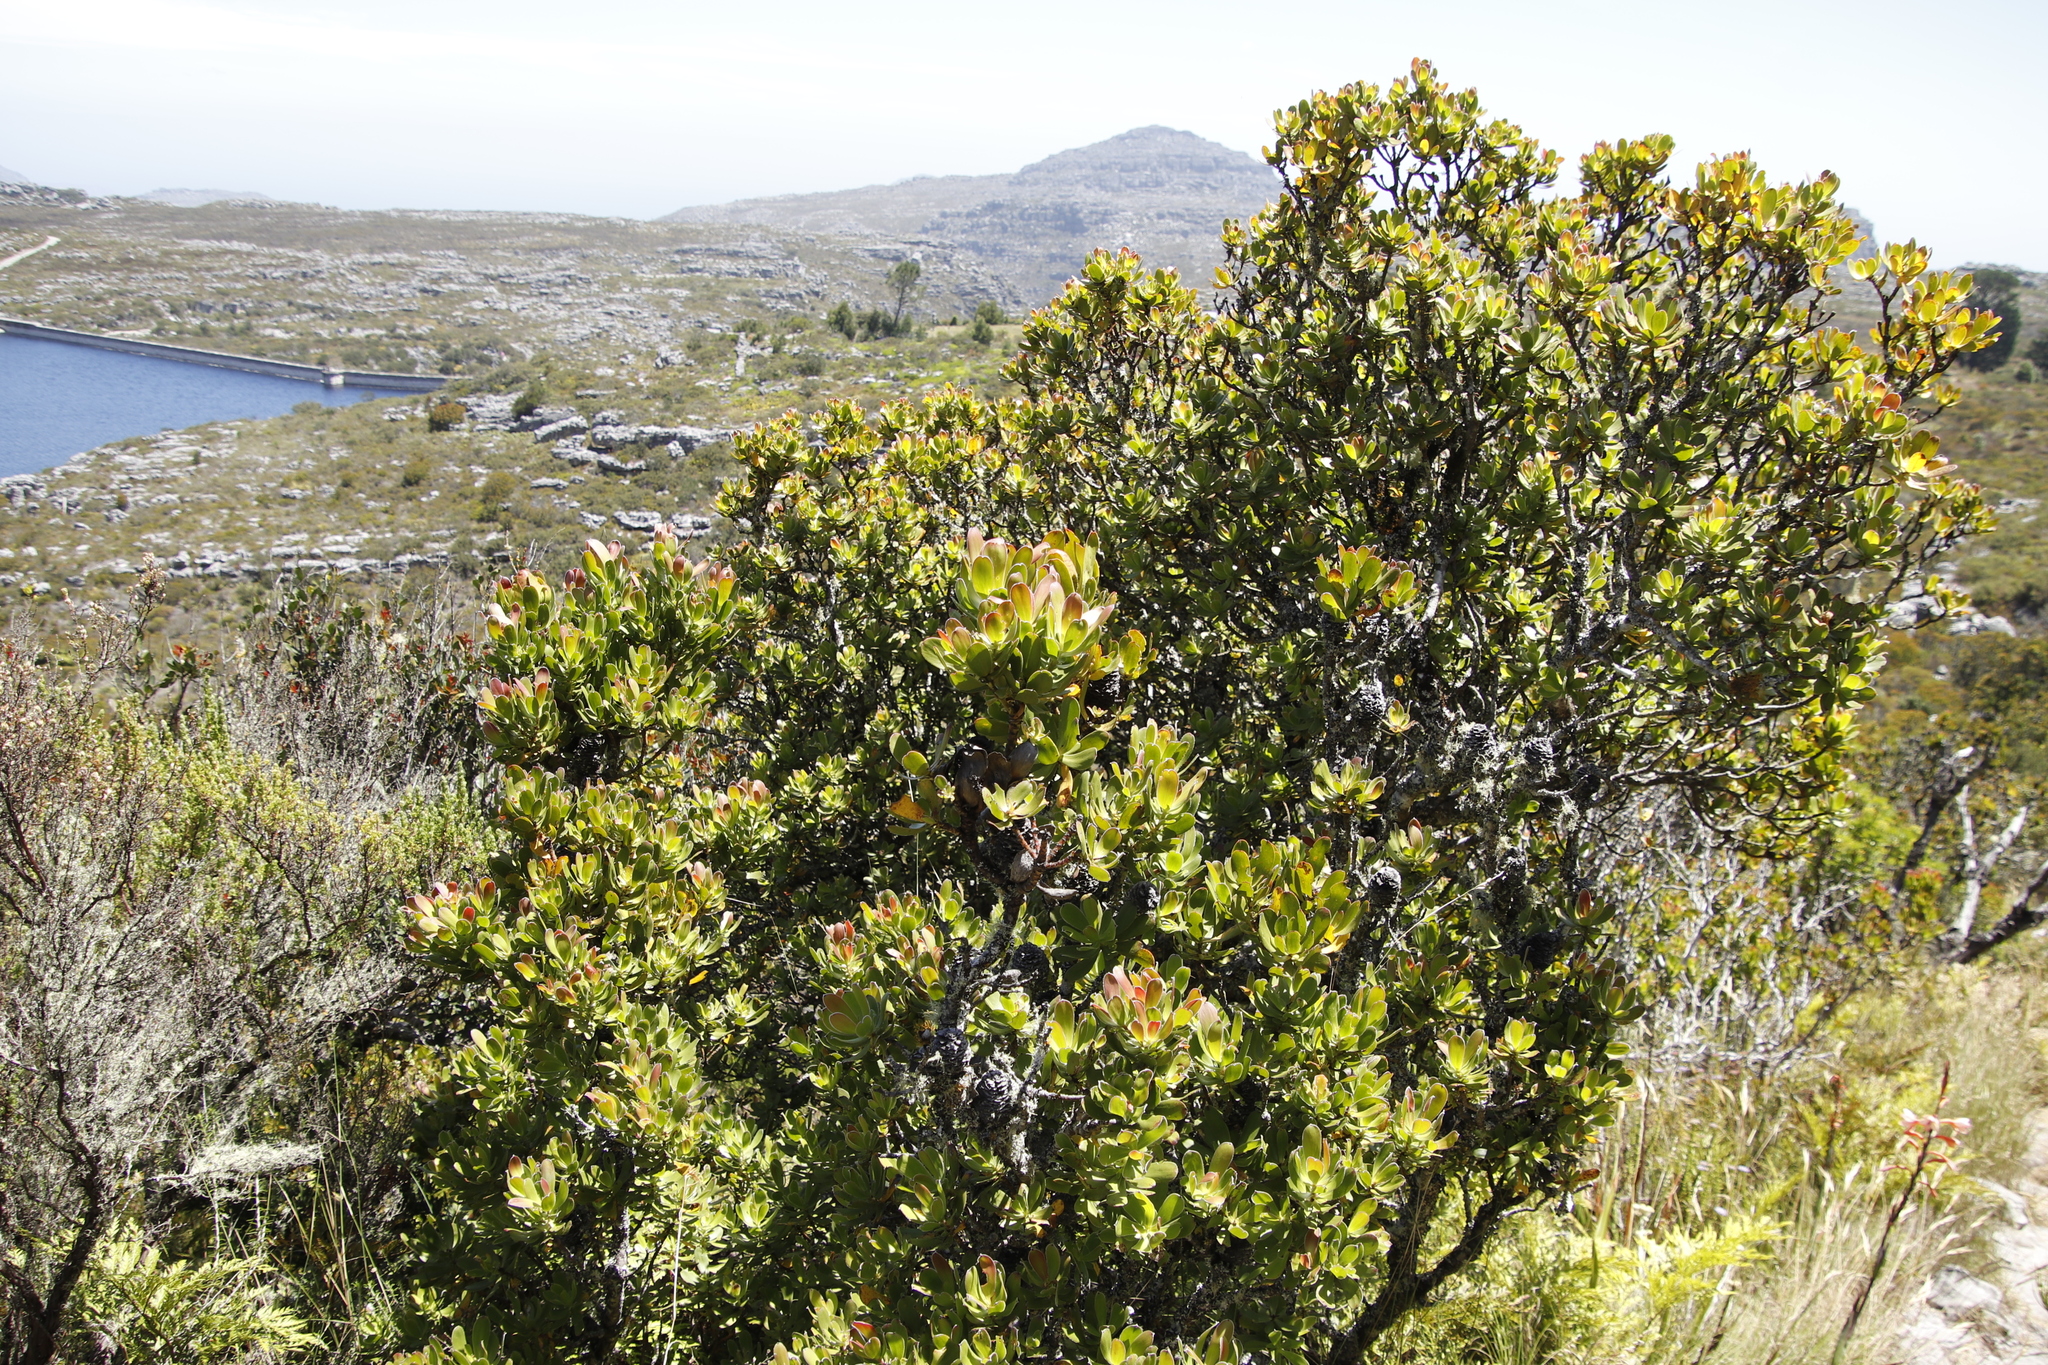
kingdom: Plantae
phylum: Tracheophyta
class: Magnoliopsida
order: Proteales
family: Proteaceae
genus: Leucadendron
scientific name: Leucadendron strobilinum
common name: Mountain rose
